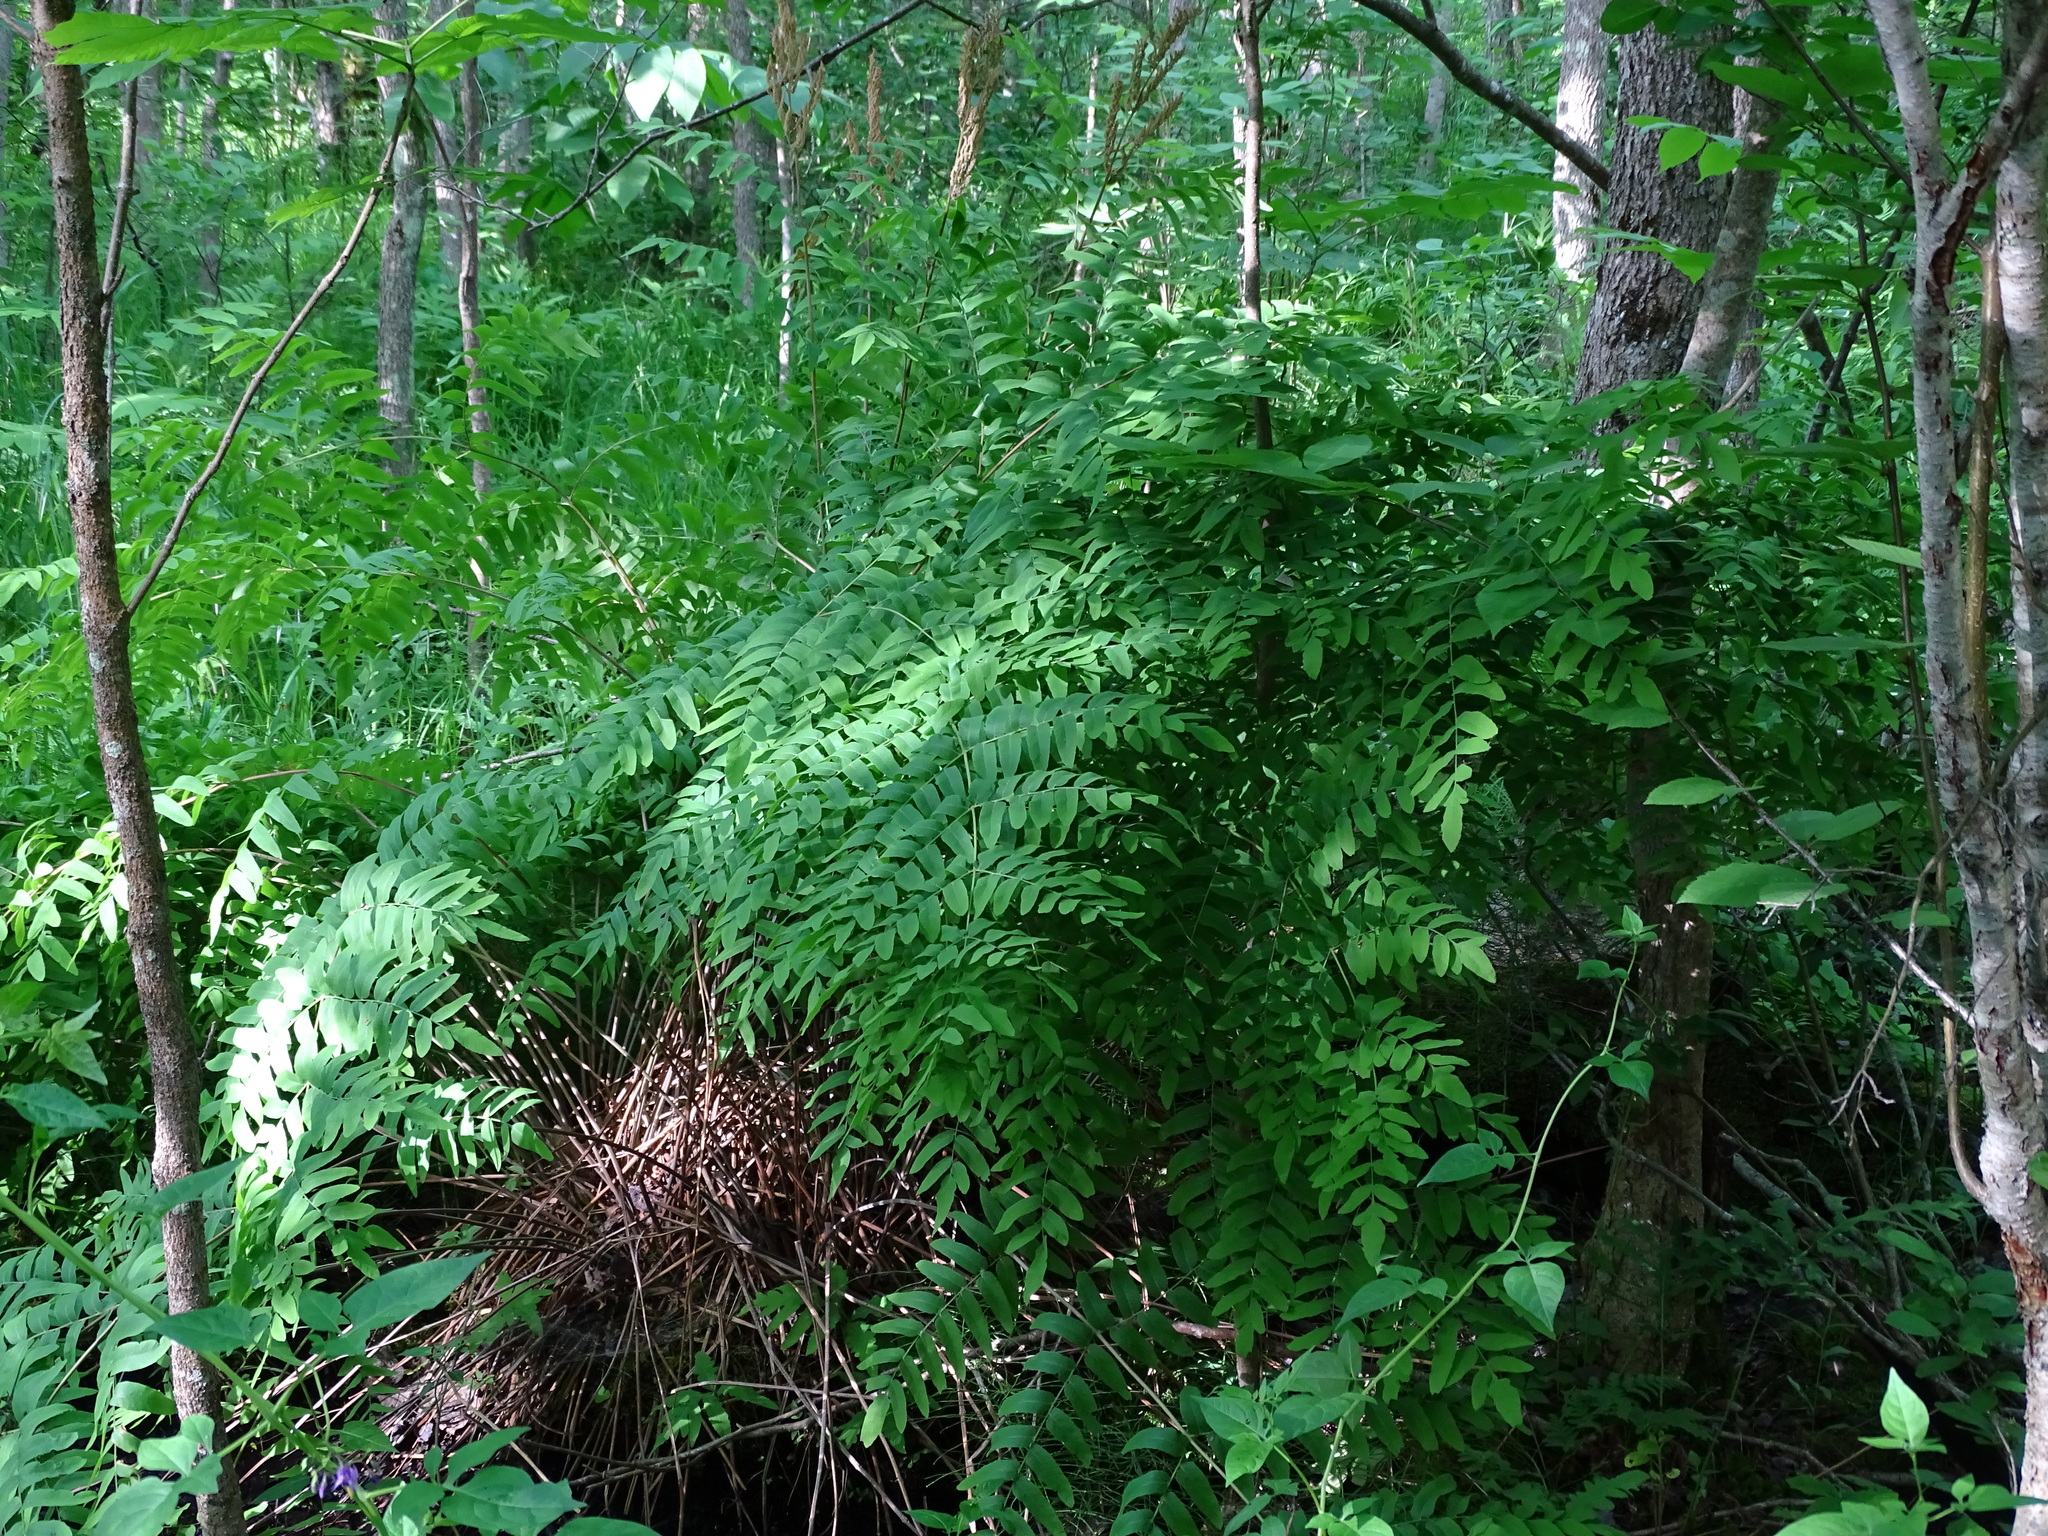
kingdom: Plantae
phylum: Tracheophyta
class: Polypodiopsida
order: Osmundales
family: Osmundaceae
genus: Osmunda
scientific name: Osmunda spectabilis
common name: American royal fern
